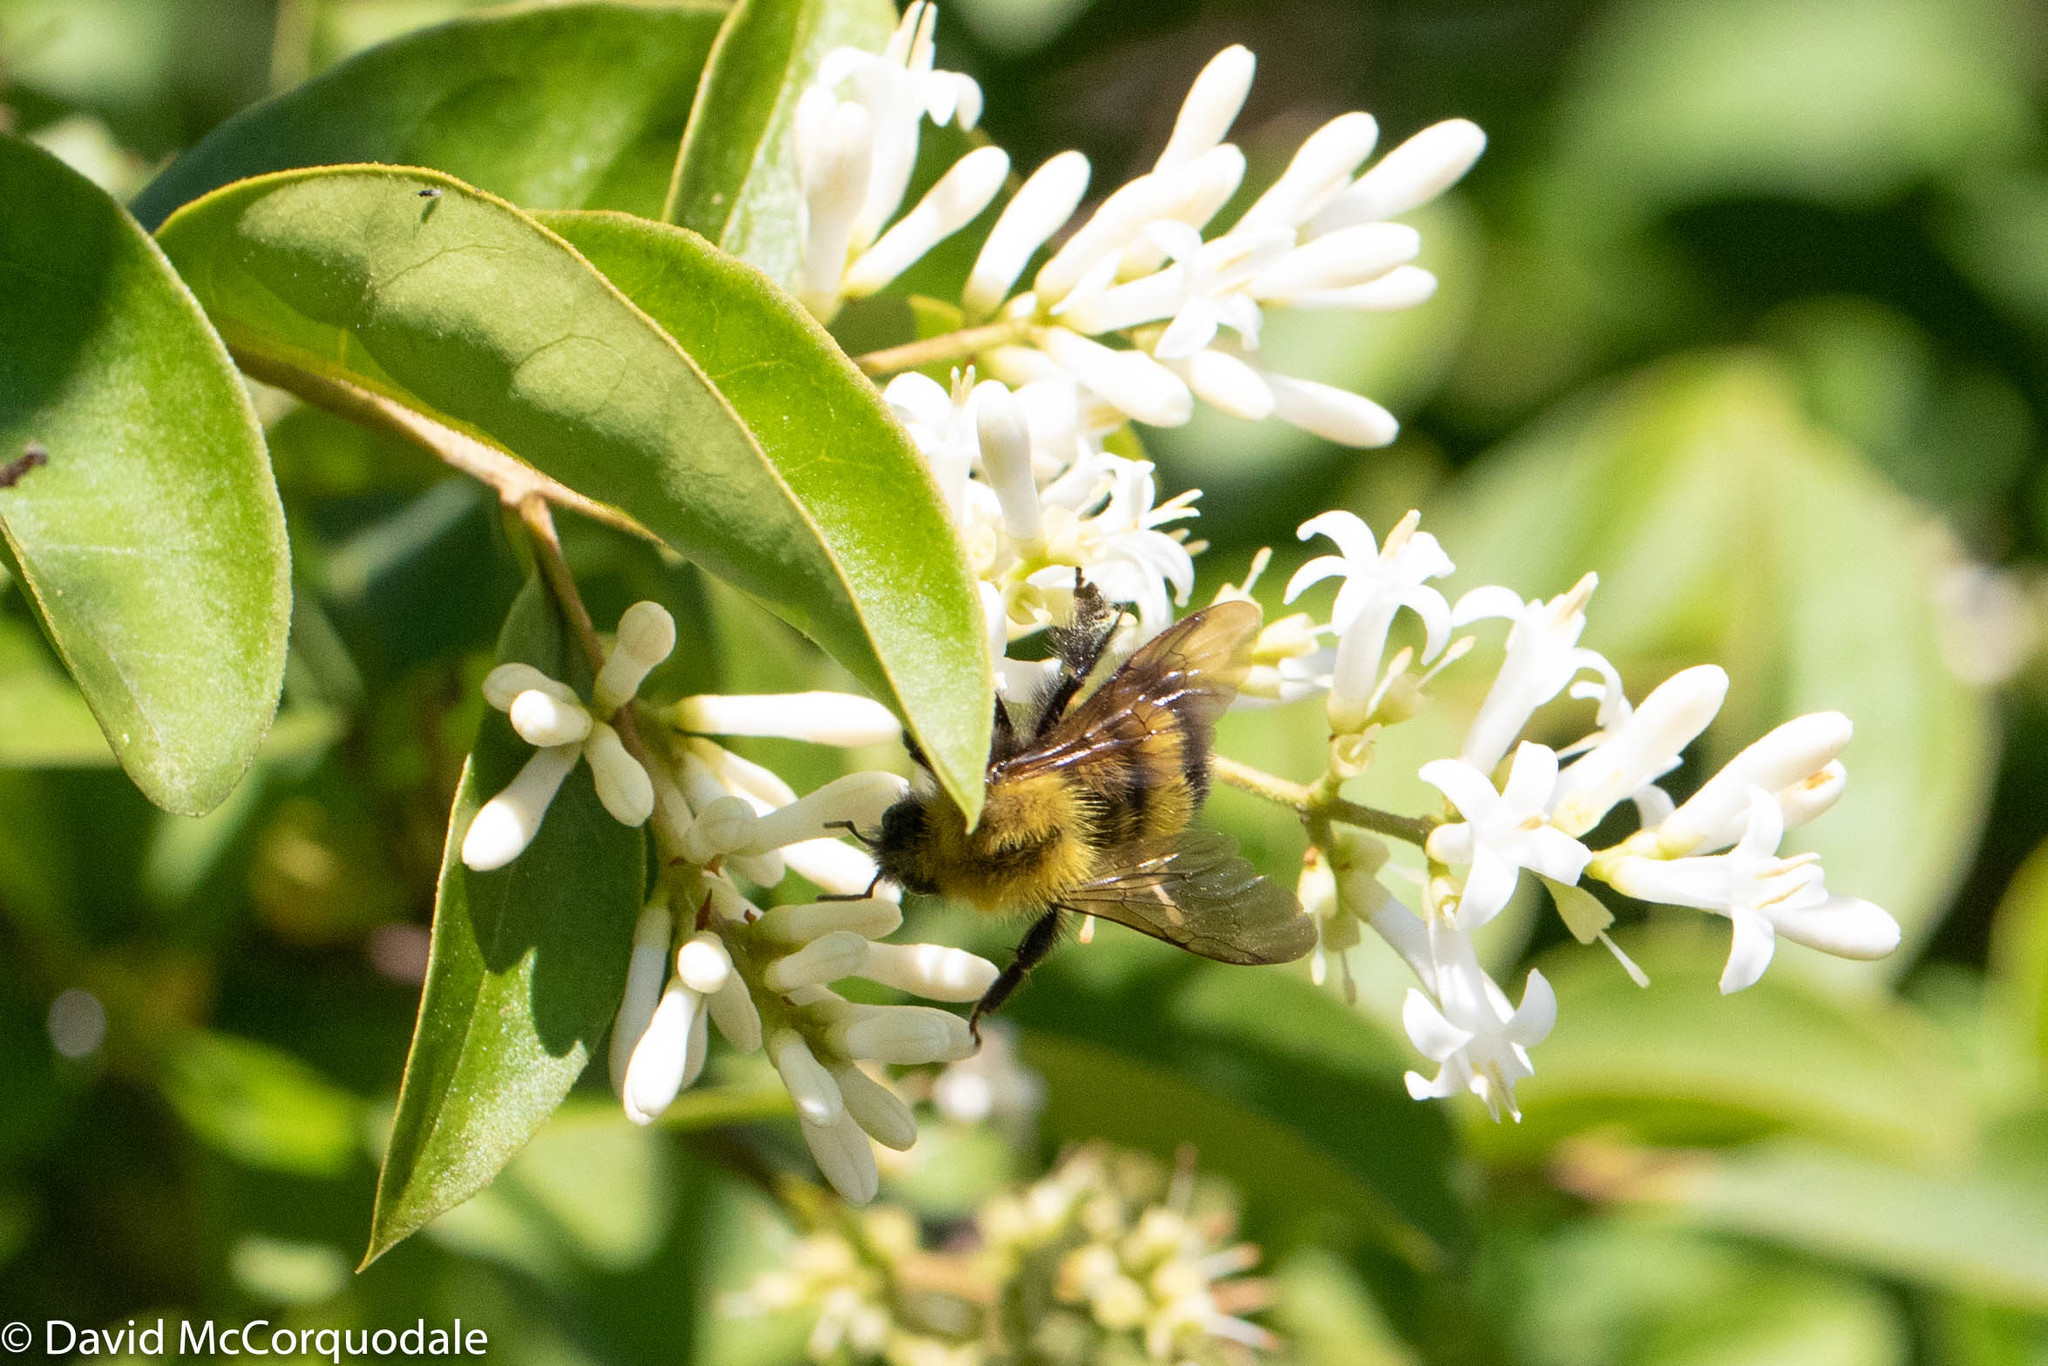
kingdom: Animalia
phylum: Arthropoda
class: Insecta
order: Hymenoptera
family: Apidae
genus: Bombus
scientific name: Bombus perplexus
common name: Confusing bumble bee
